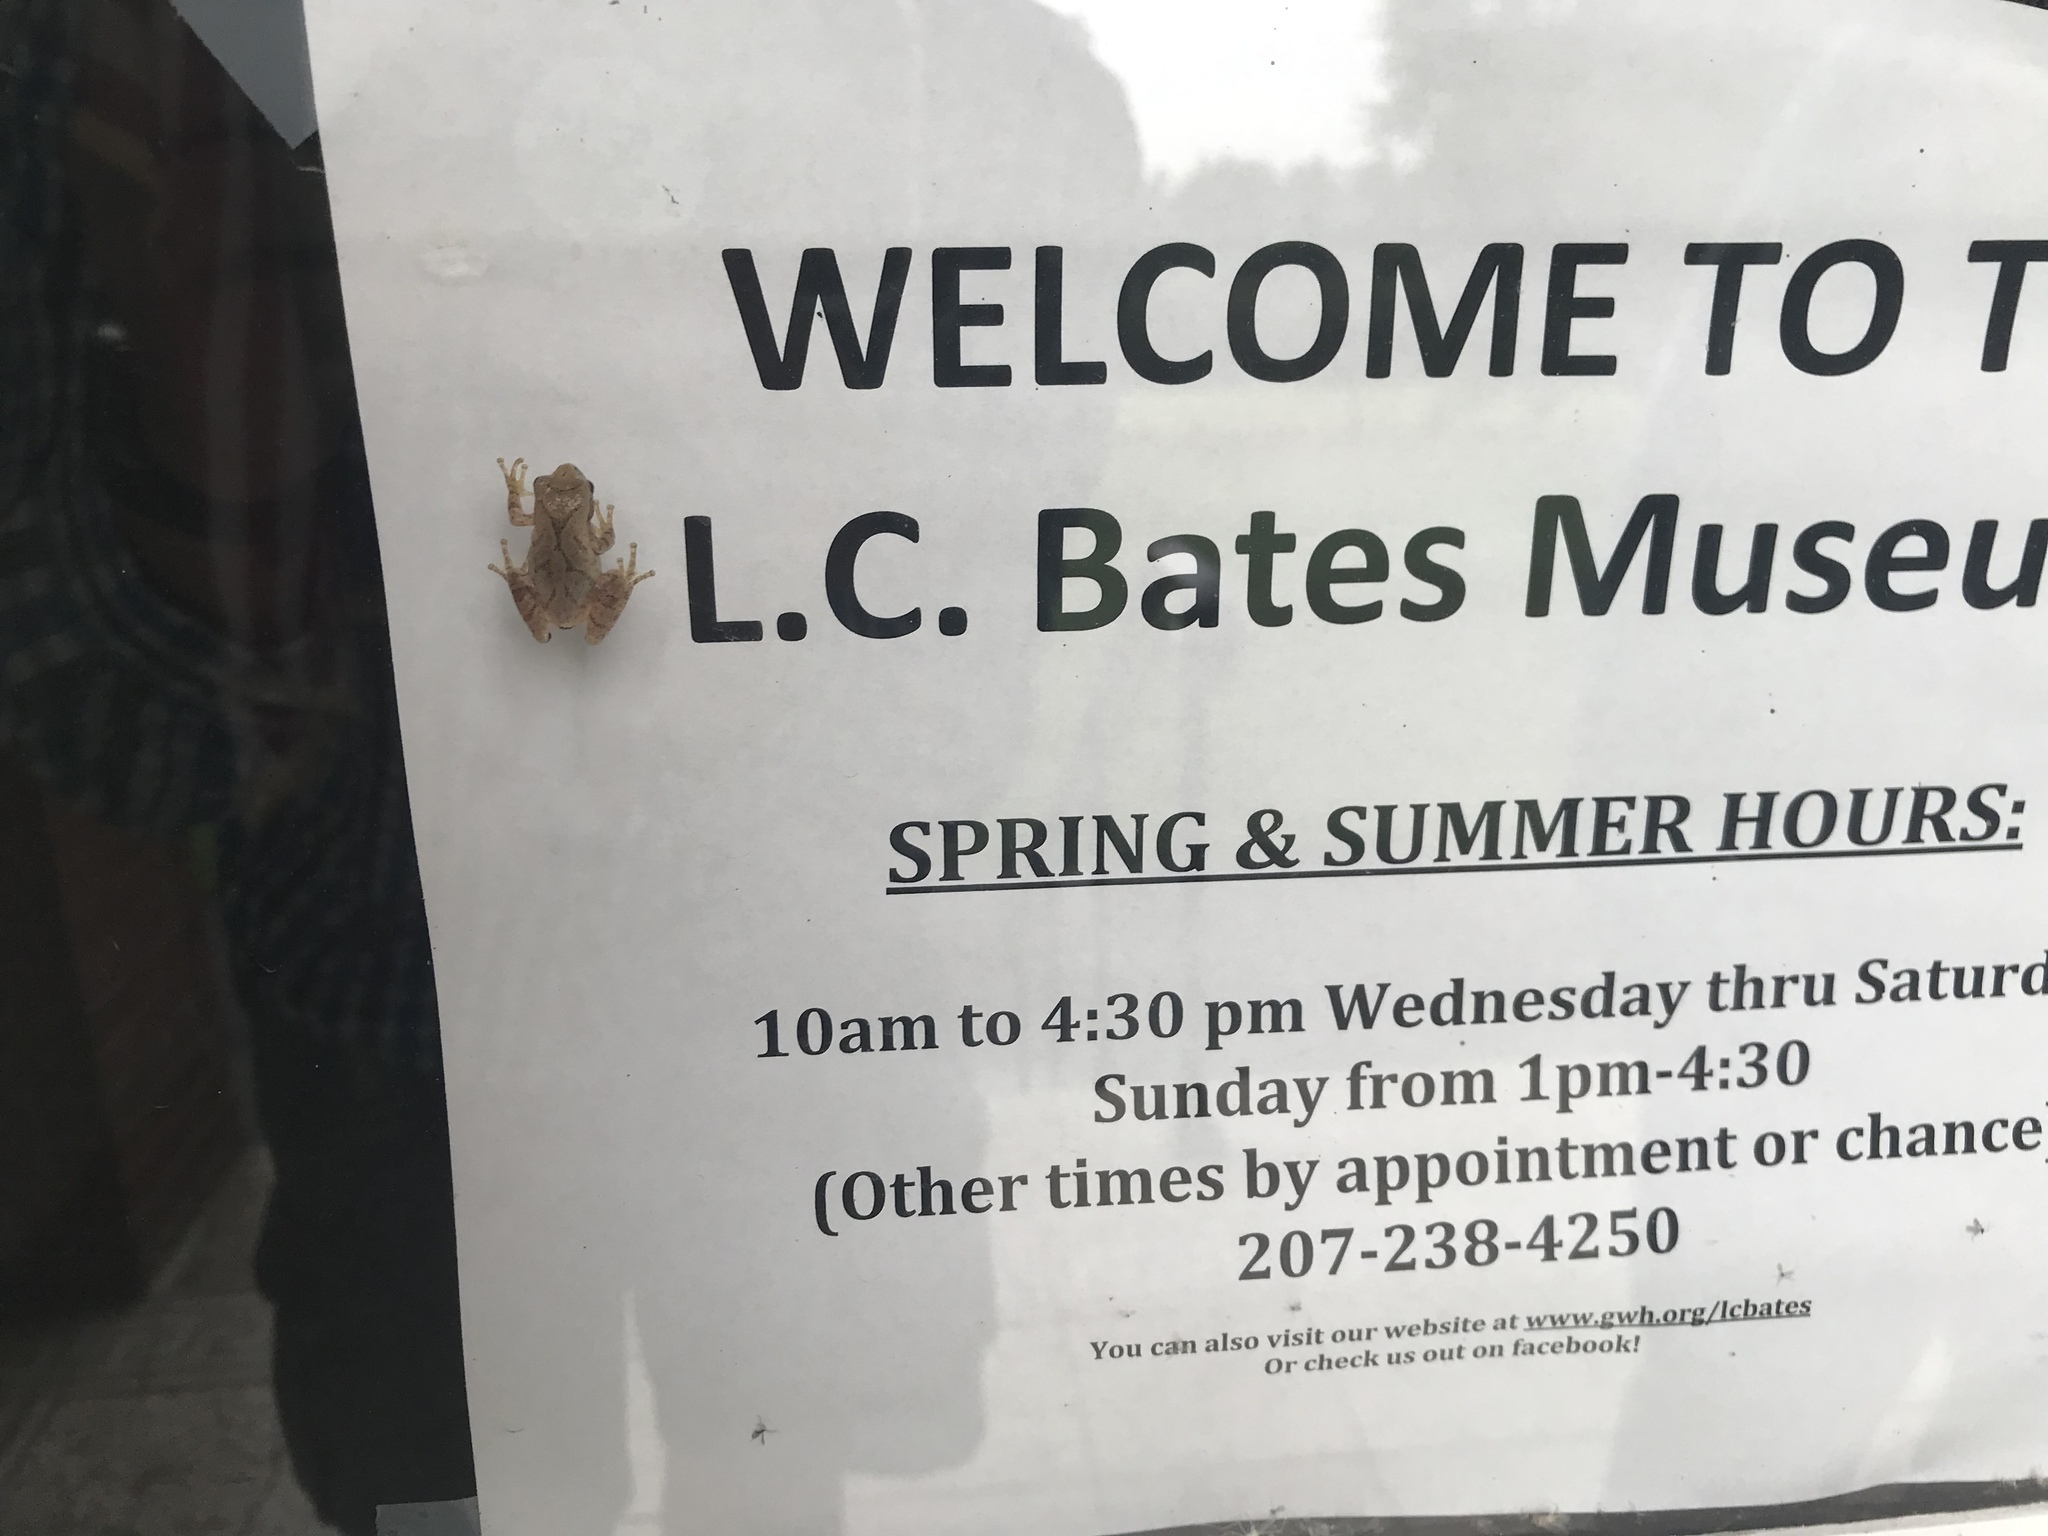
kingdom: Animalia
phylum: Chordata
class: Amphibia
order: Anura
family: Hylidae
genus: Pseudacris
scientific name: Pseudacris crucifer
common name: Spring peeper
